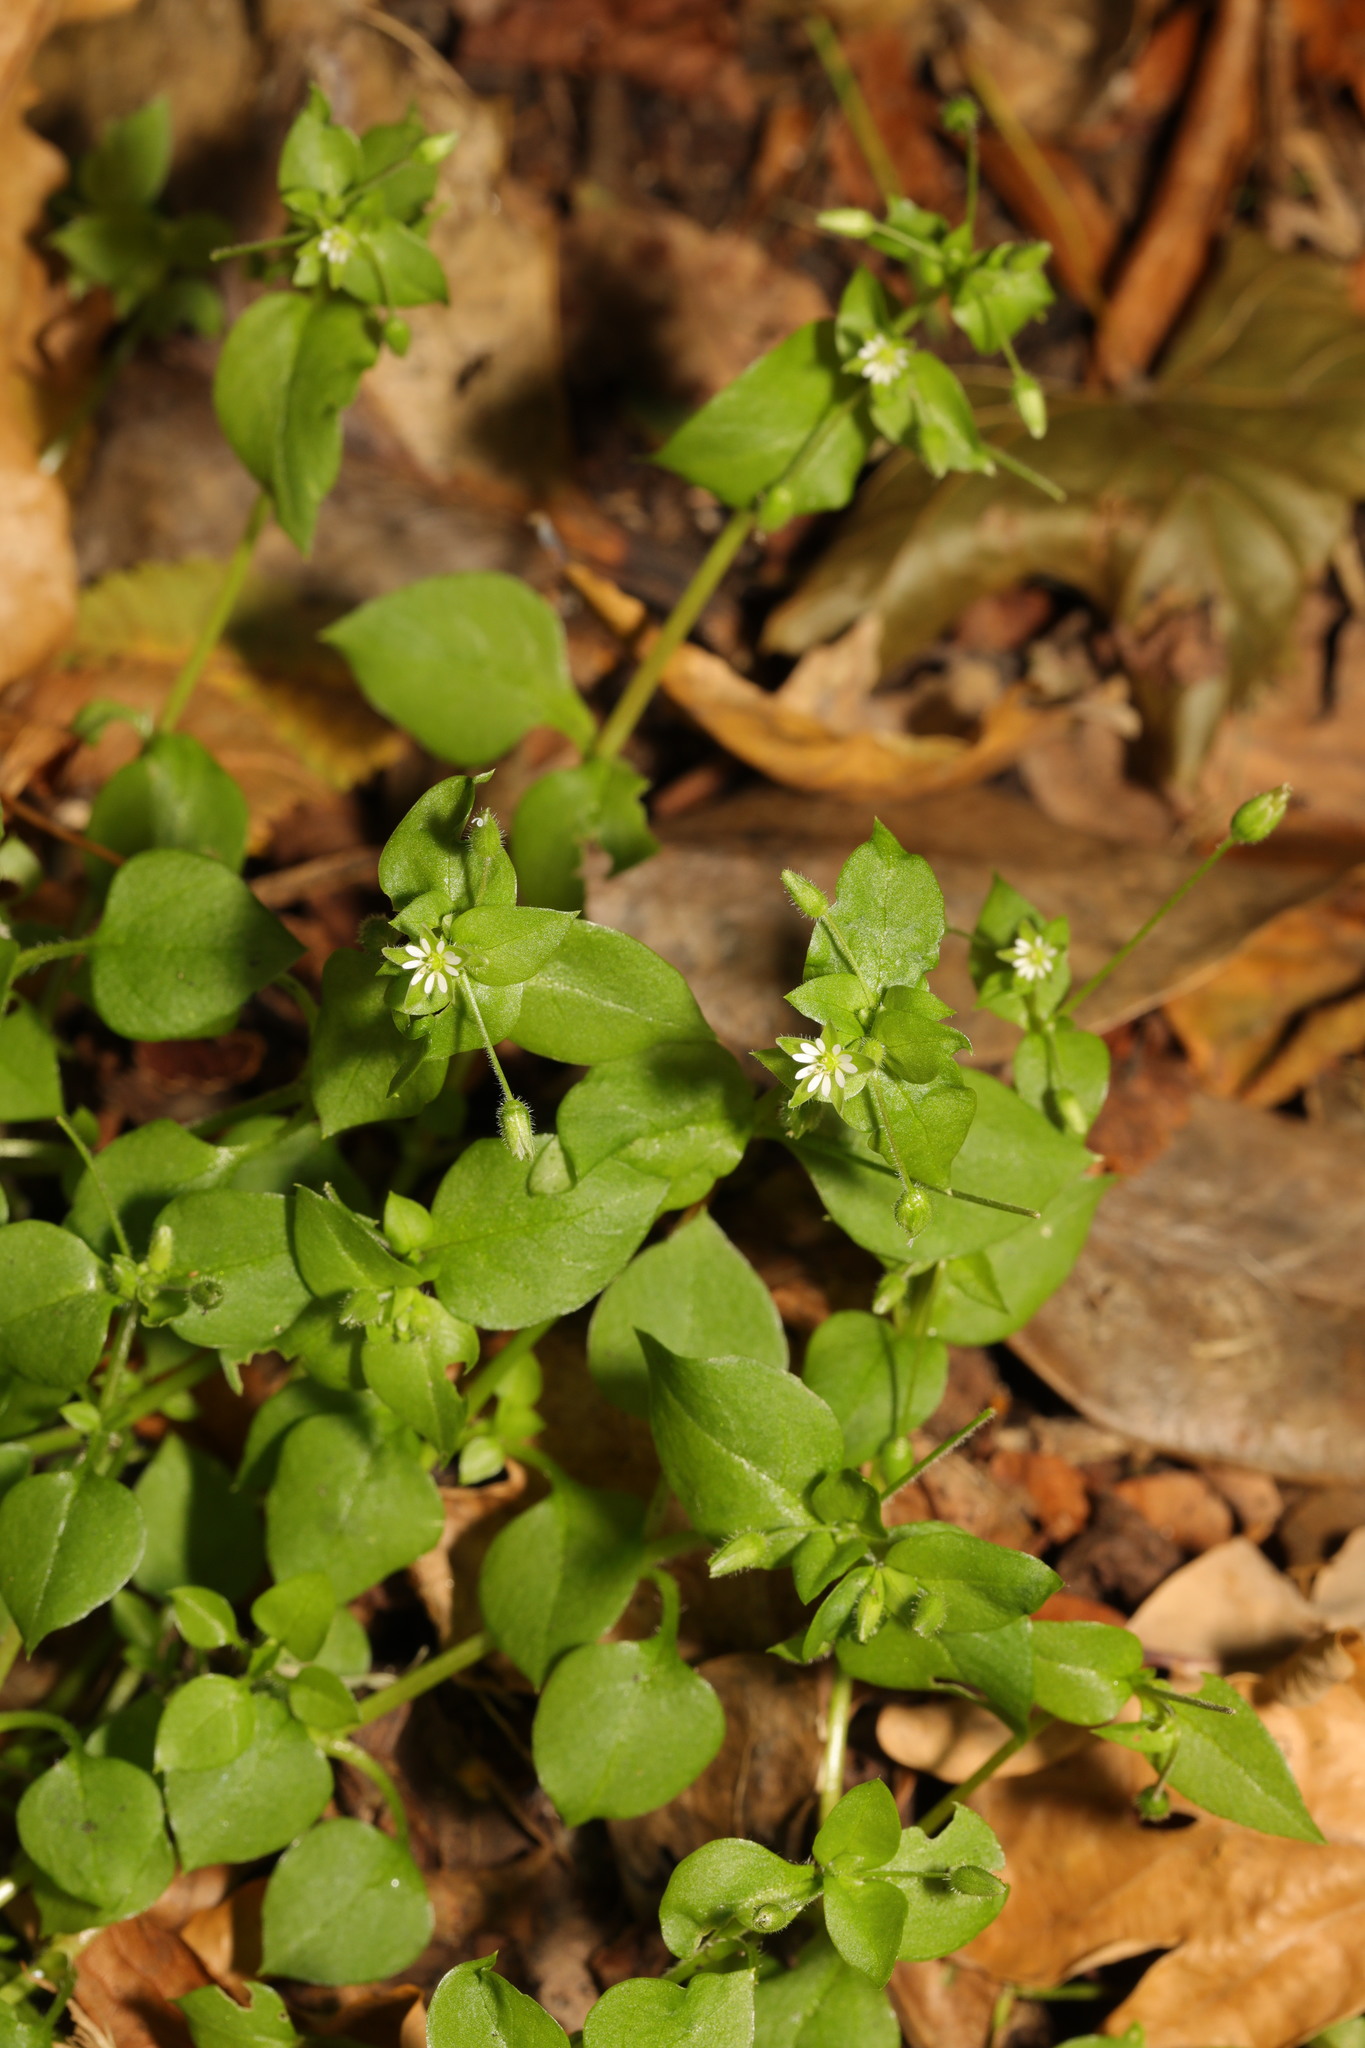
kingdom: Plantae
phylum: Tracheophyta
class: Magnoliopsida
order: Caryophyllales
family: Caryophyllaceae
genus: Stellaria
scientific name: Stellaria media
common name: Common chickweed
